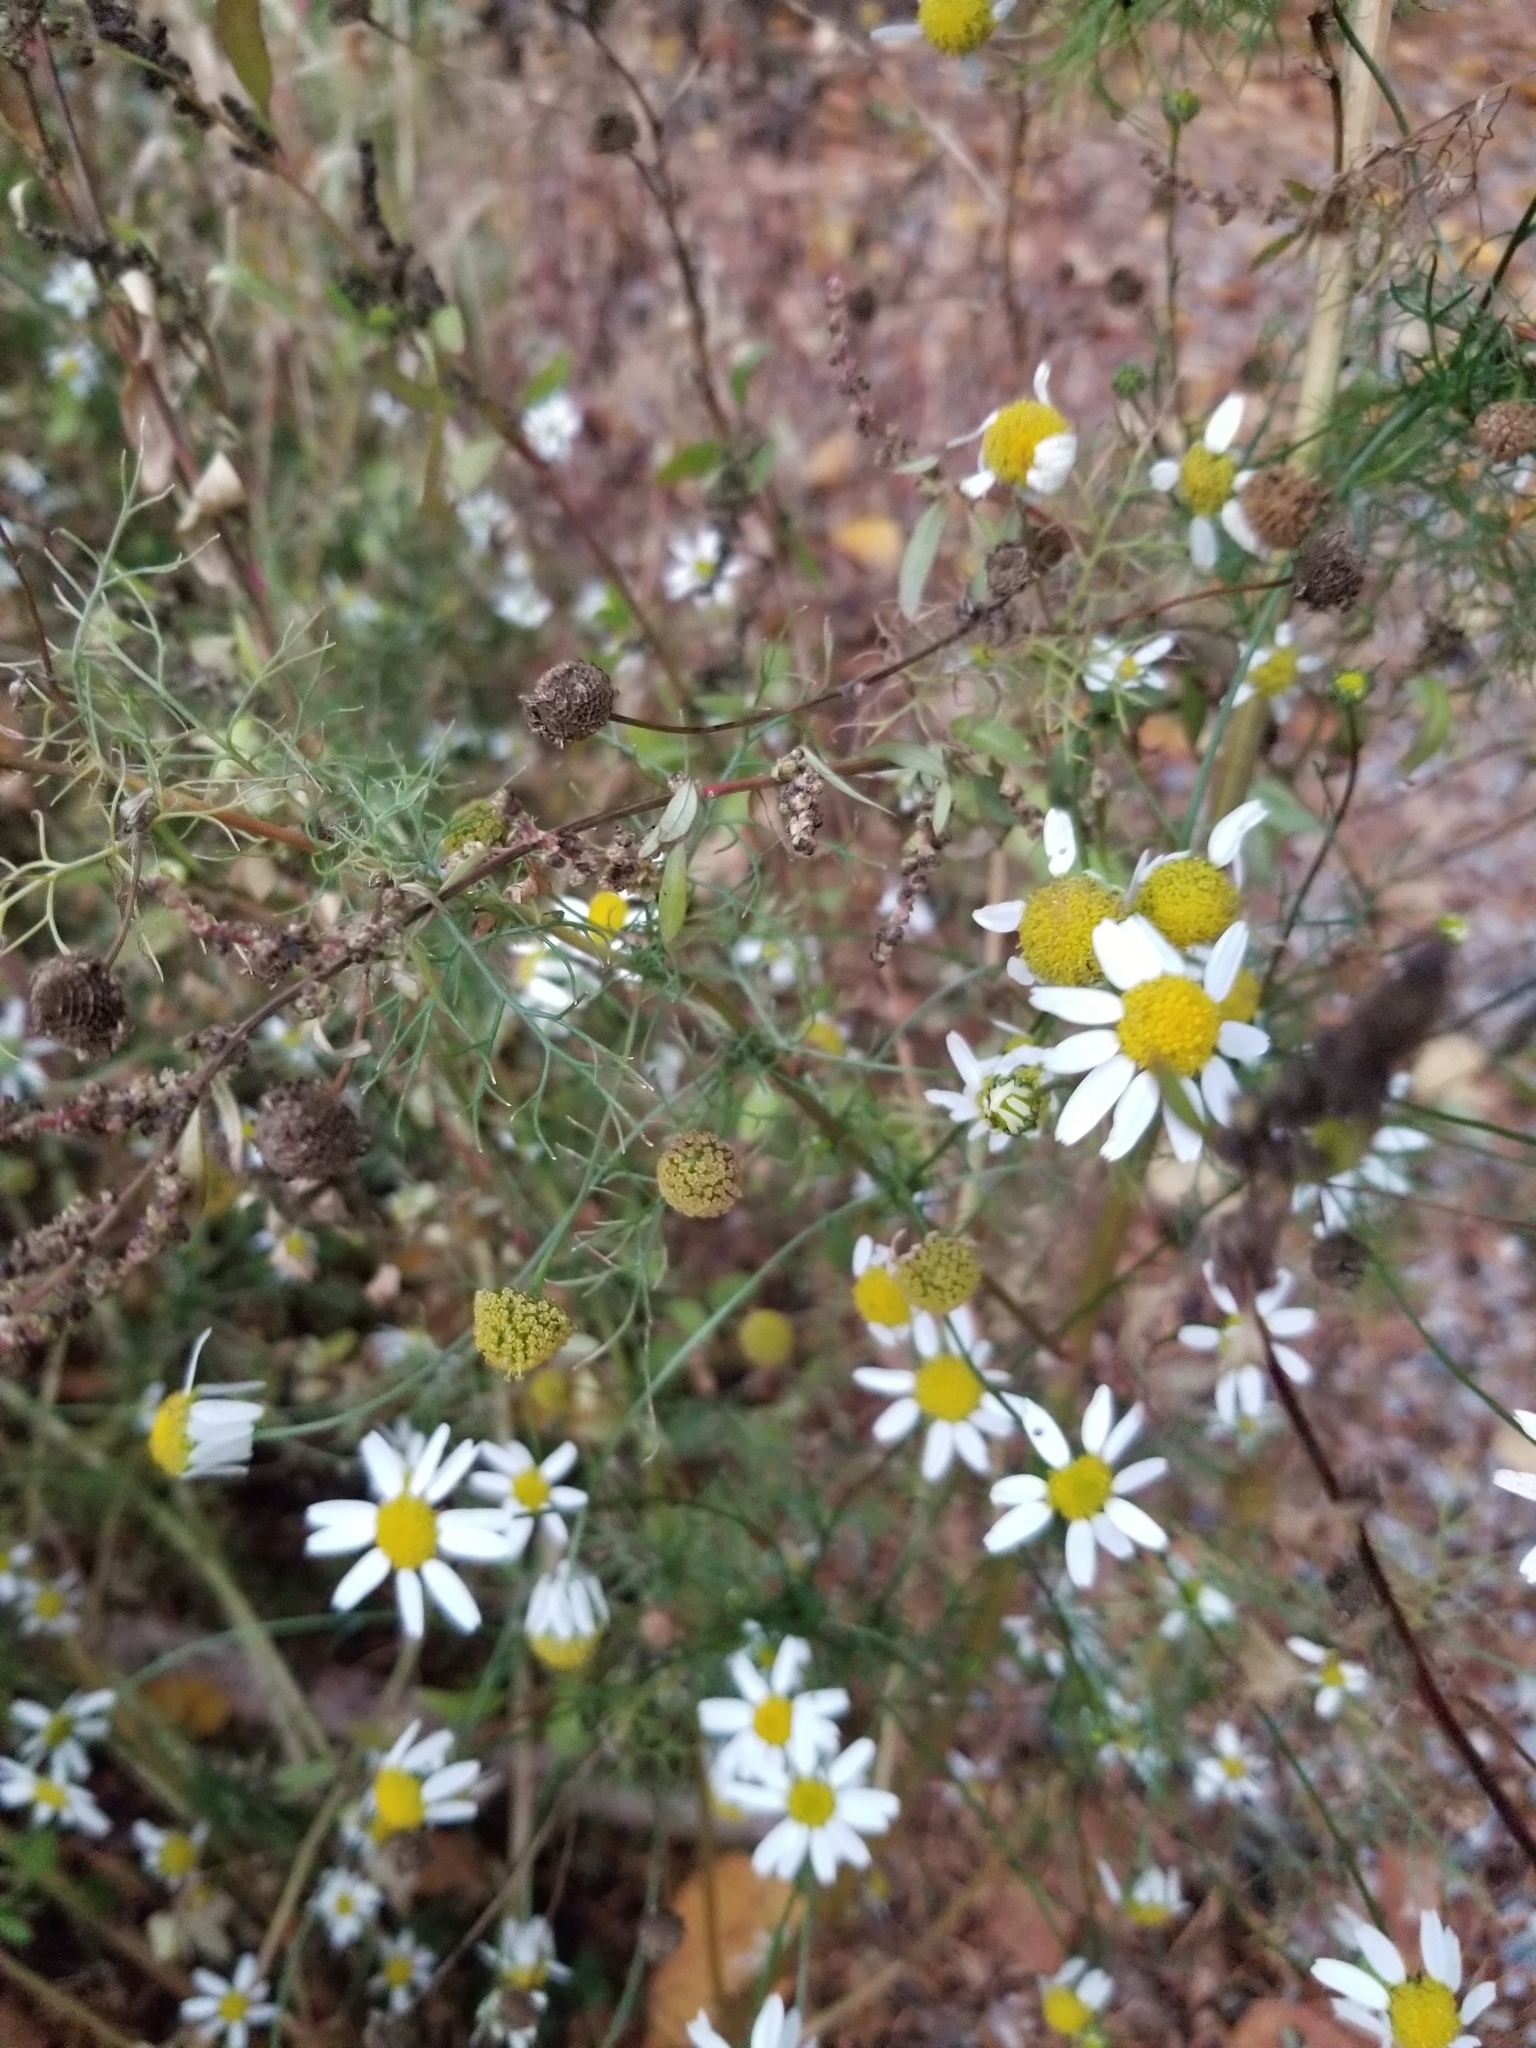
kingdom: Plantae
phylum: Tracheophyta
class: Magnoliopsida
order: Asterales
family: Asteraceae
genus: Tripleurospermum
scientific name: Tripleurospermum inodorum
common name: Scentless mayweed
